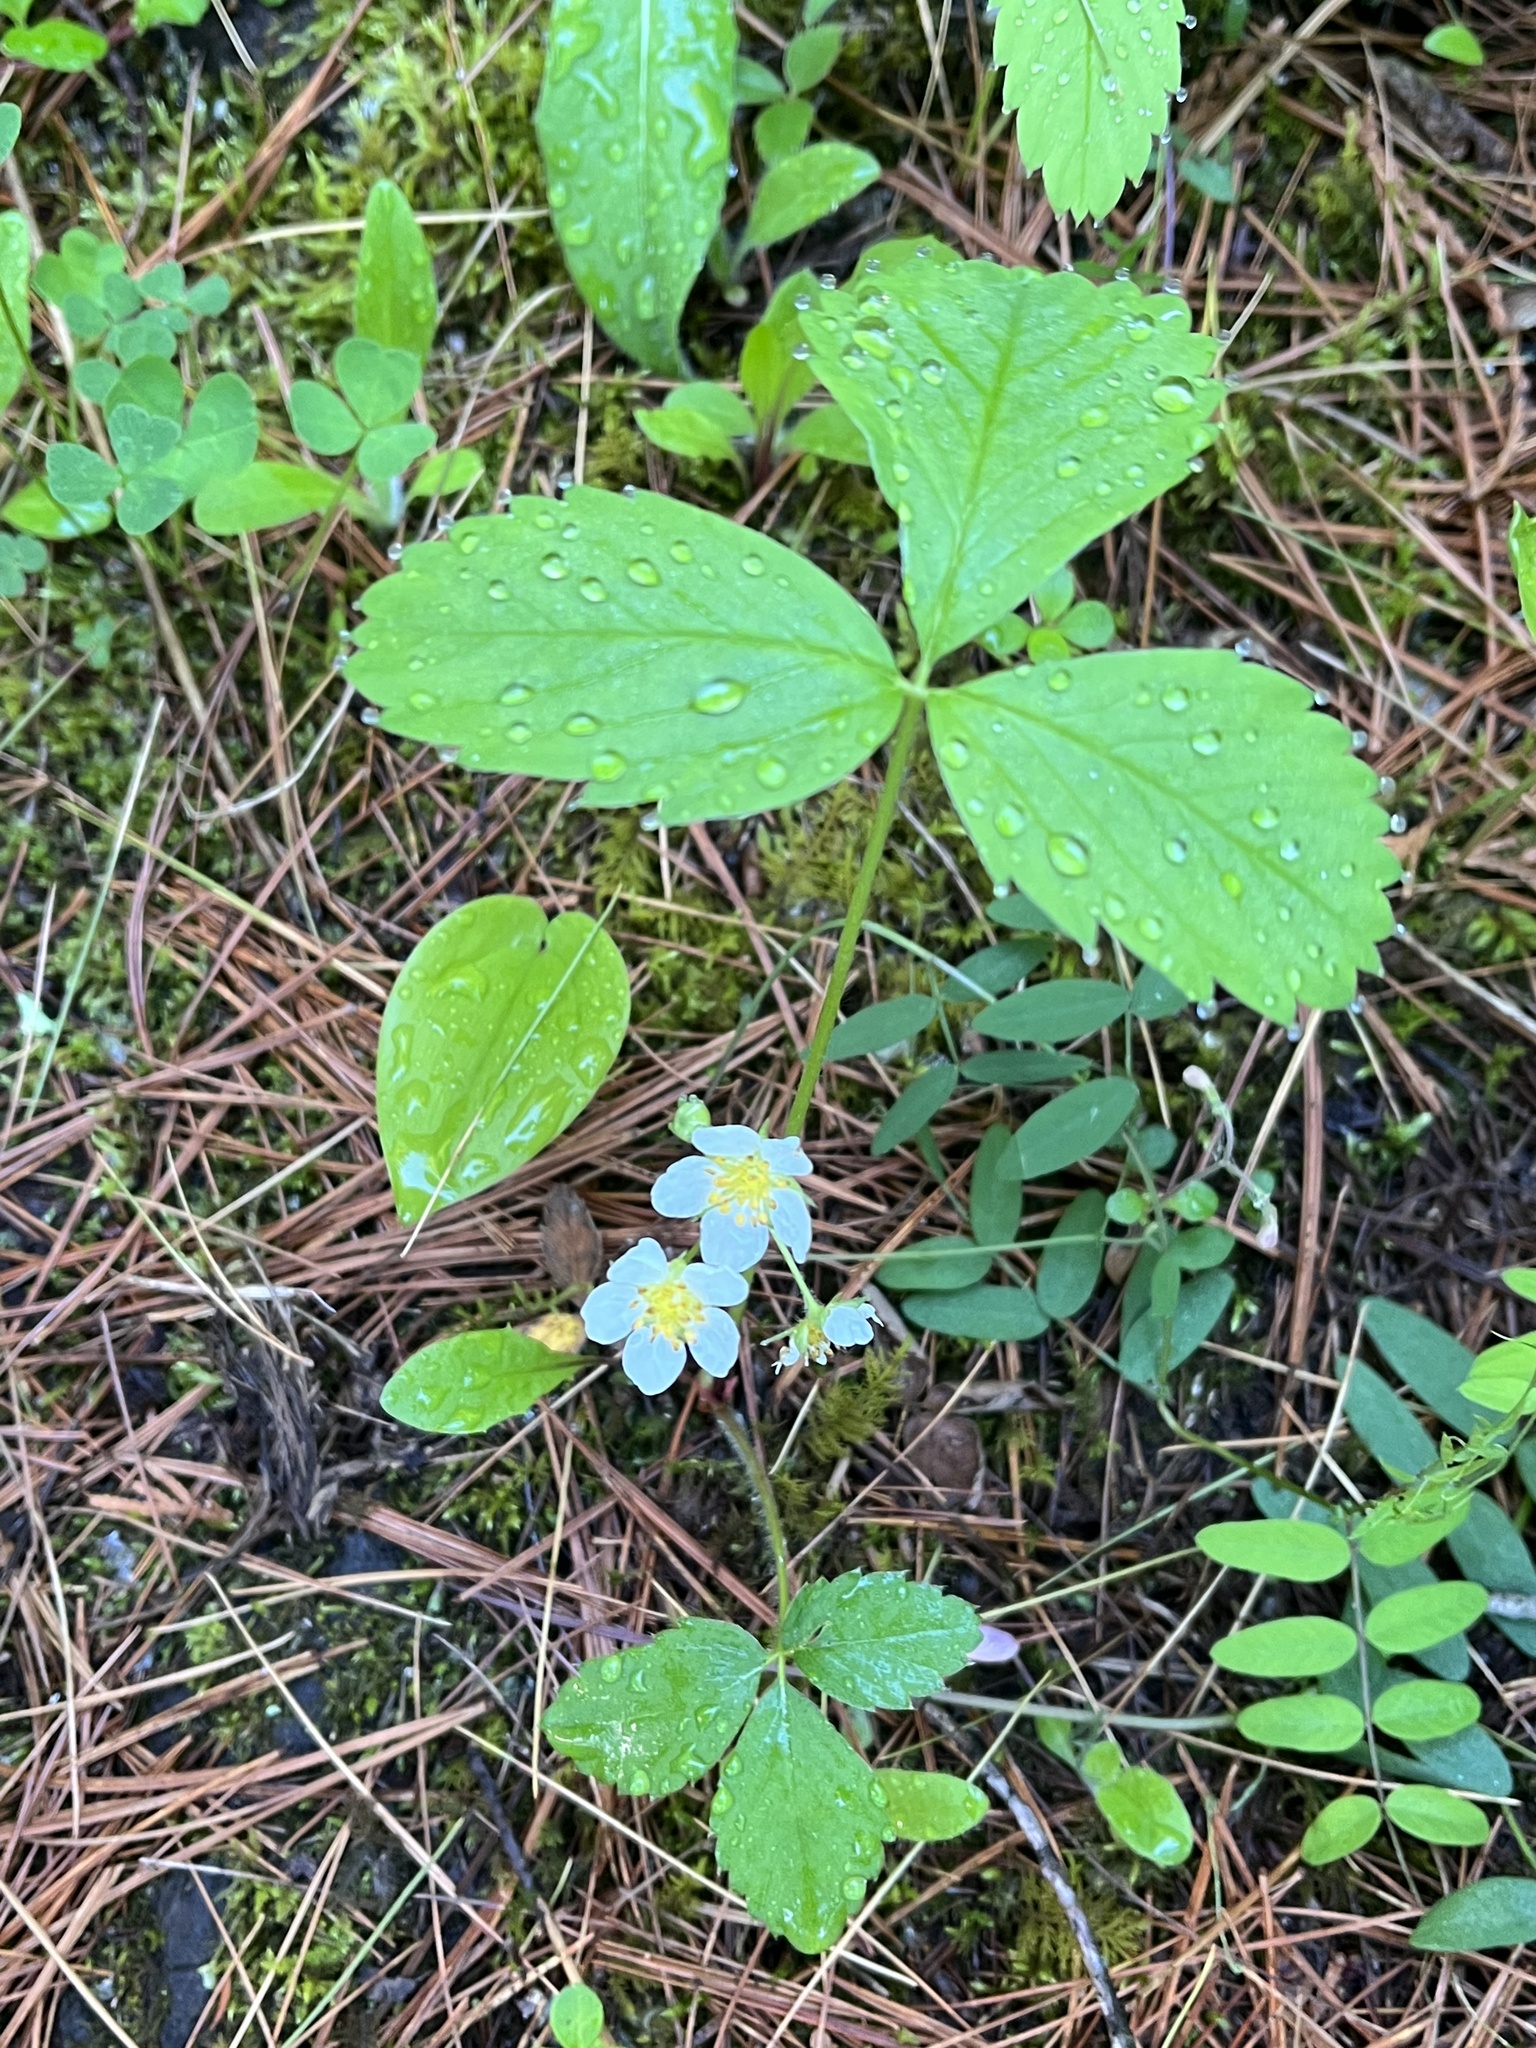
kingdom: Plantae
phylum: Tracheophyta
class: Magnoliopsida
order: Rosales
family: Rosaceae
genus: Fragaria
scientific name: Fragaria virginiana
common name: Thickleaved wild strawberry
